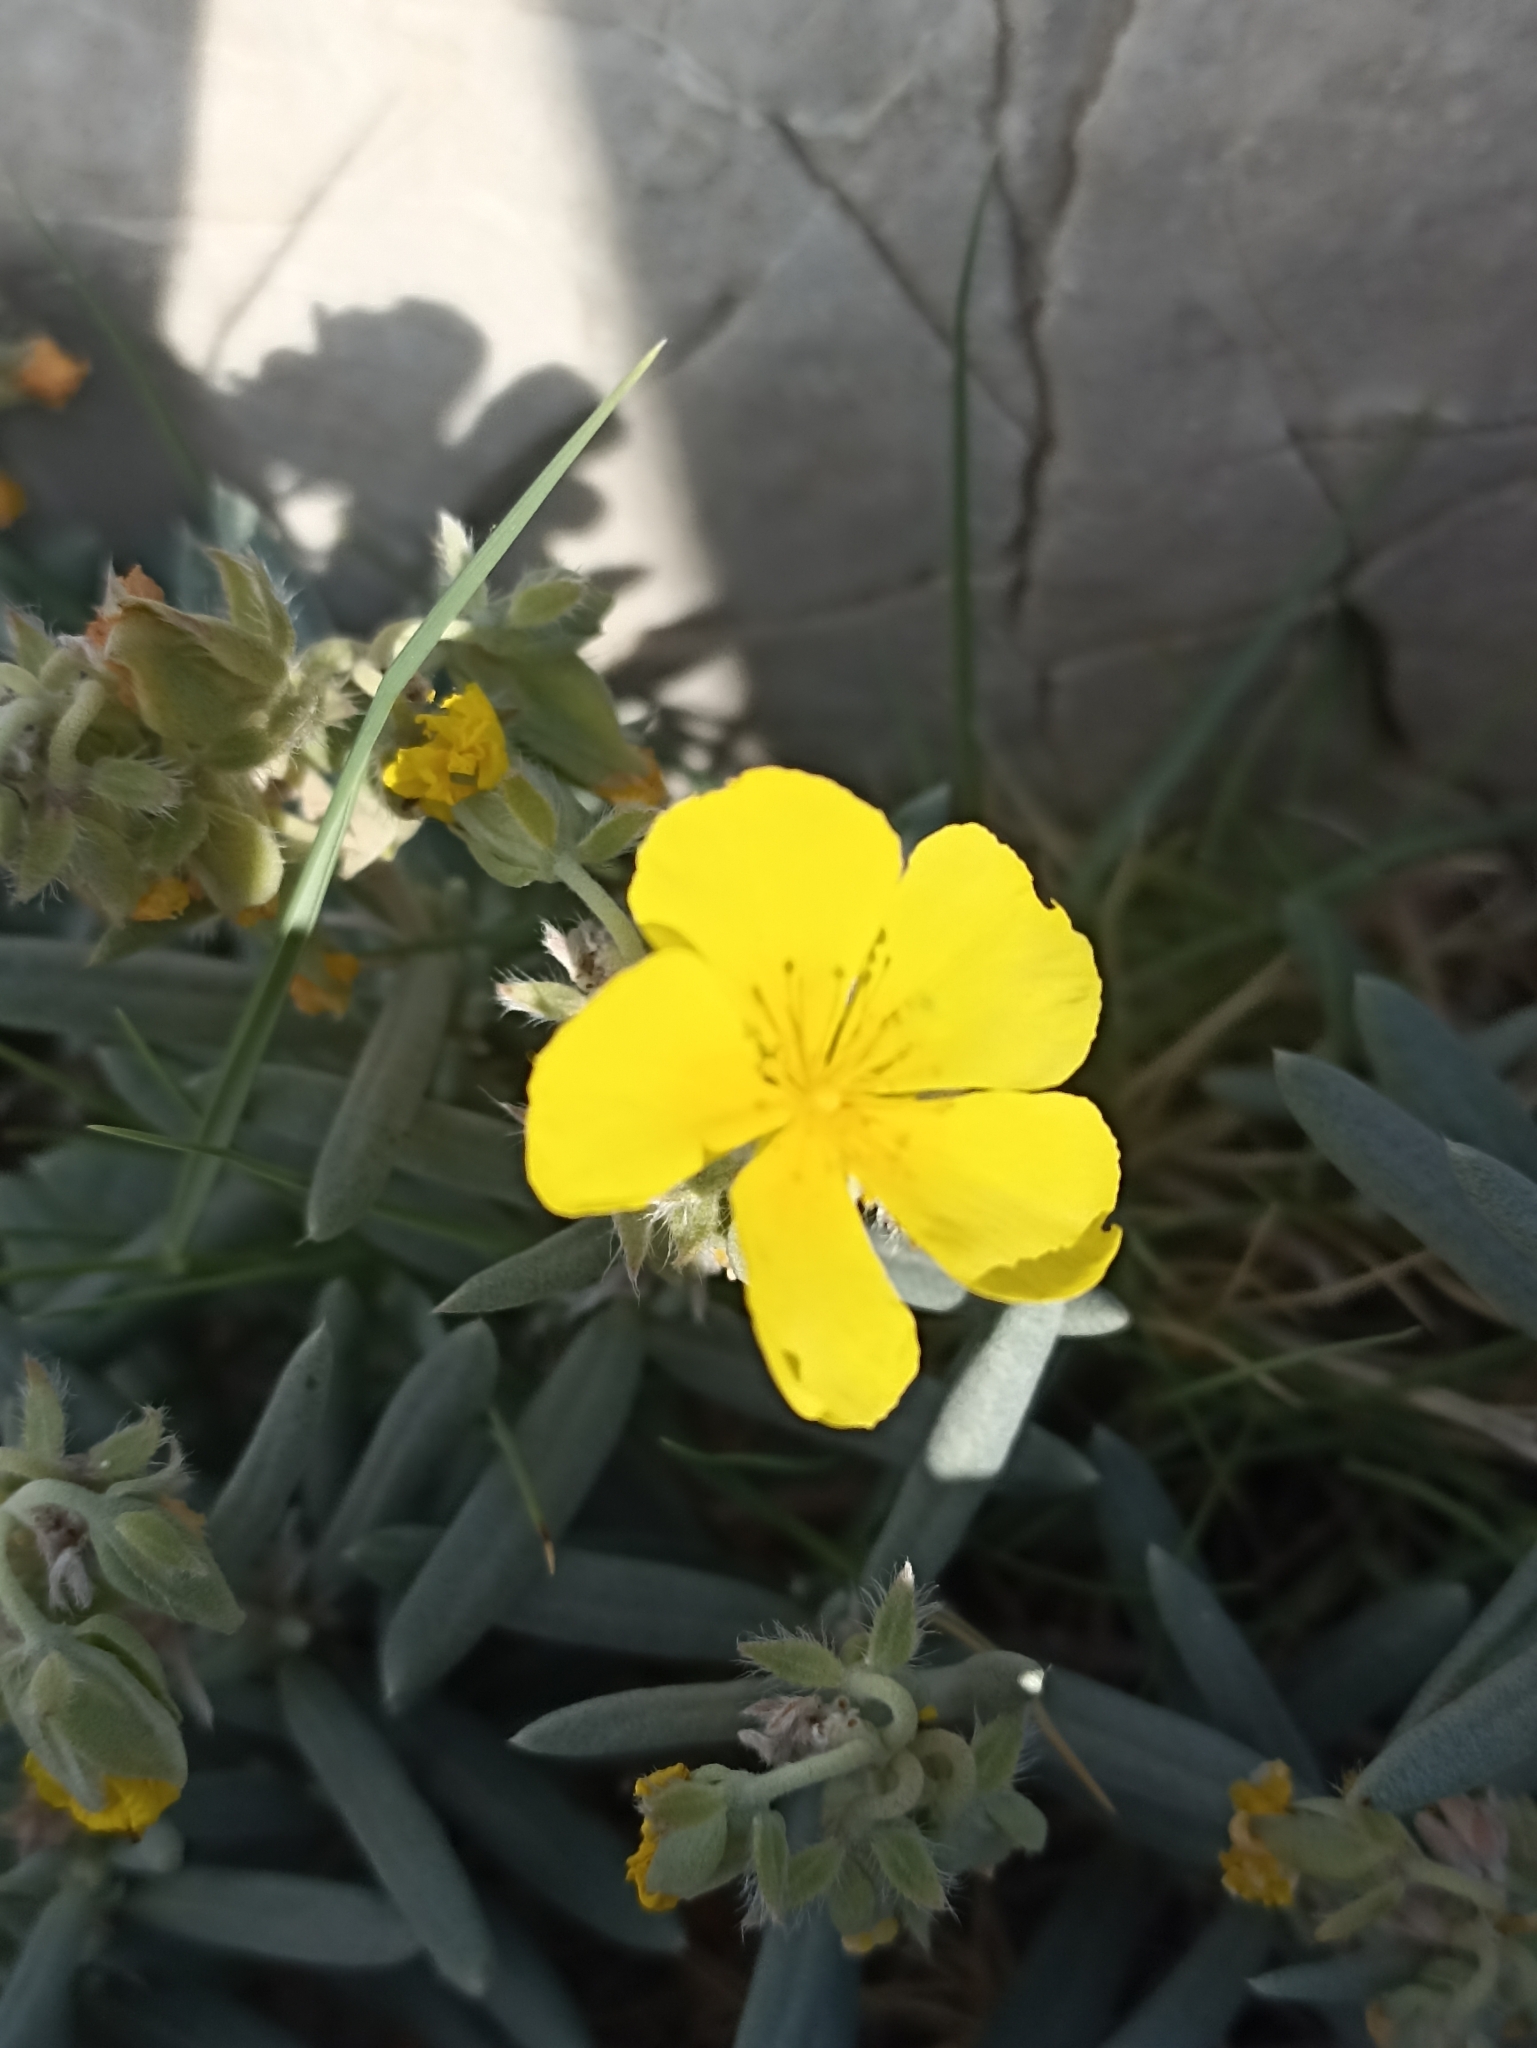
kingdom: Plantae
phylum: Tracheophyta
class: Magnoliopsida
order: Malvales
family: Cistaceae
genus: Helianthemum
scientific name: Helianthemum syriacum
